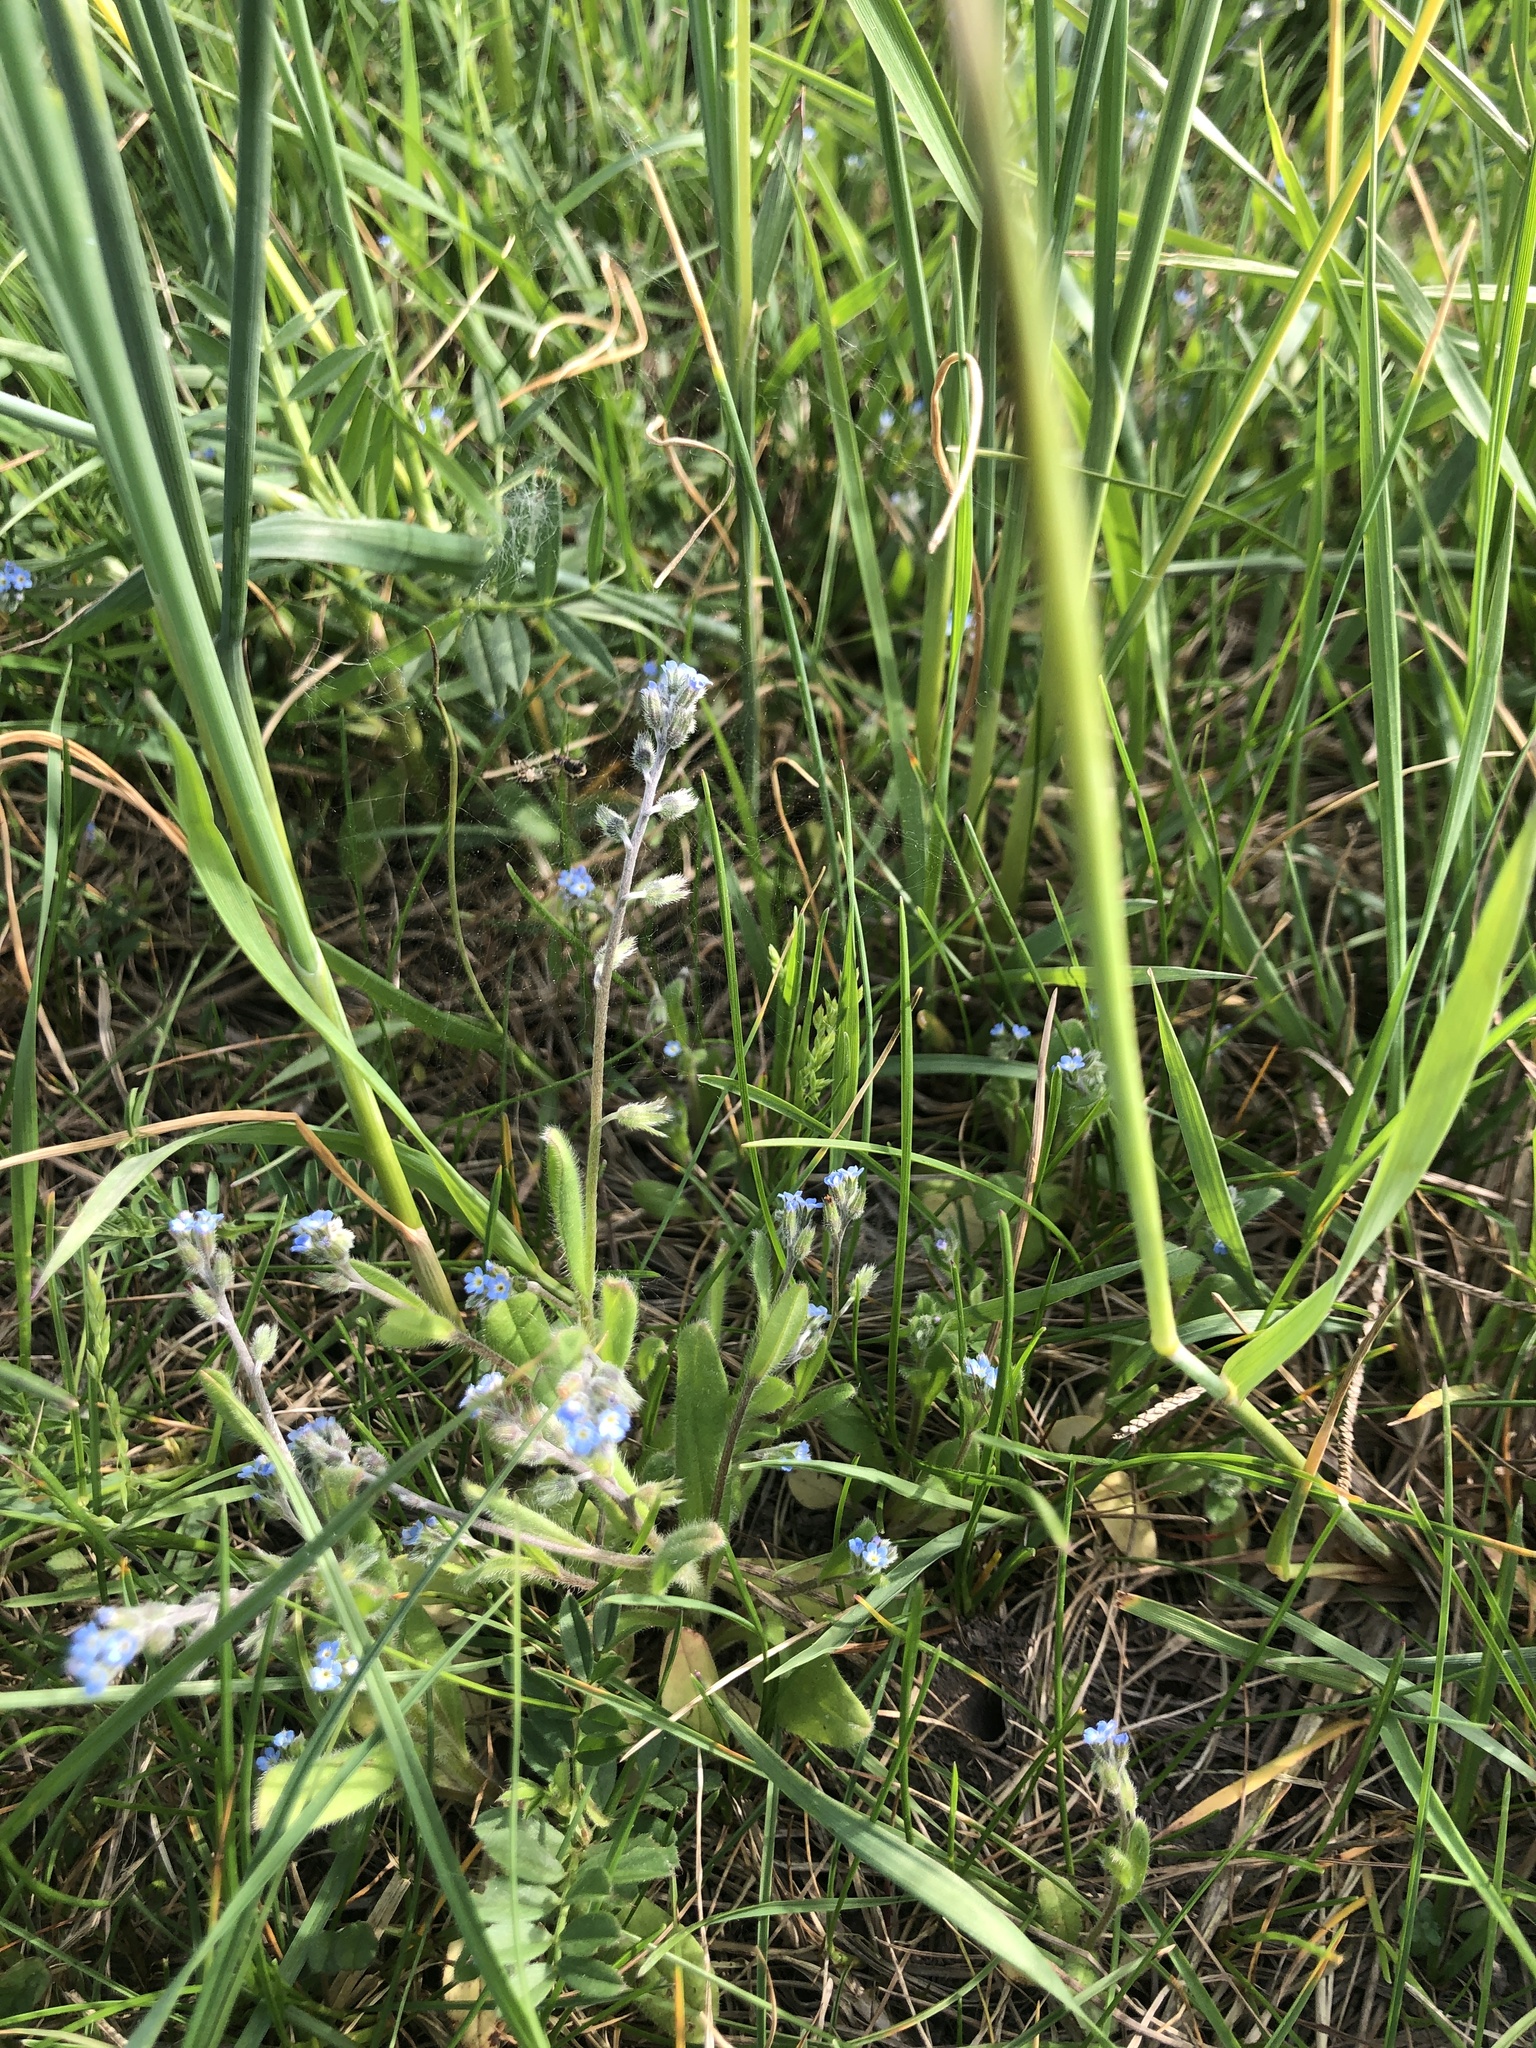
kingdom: Plantae
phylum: Tracheophyta
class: Magnoliopsida
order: Boraginales
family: Boraginaceae
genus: Myosotis
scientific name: Myosotis ramosissima
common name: Early forget-me-not
